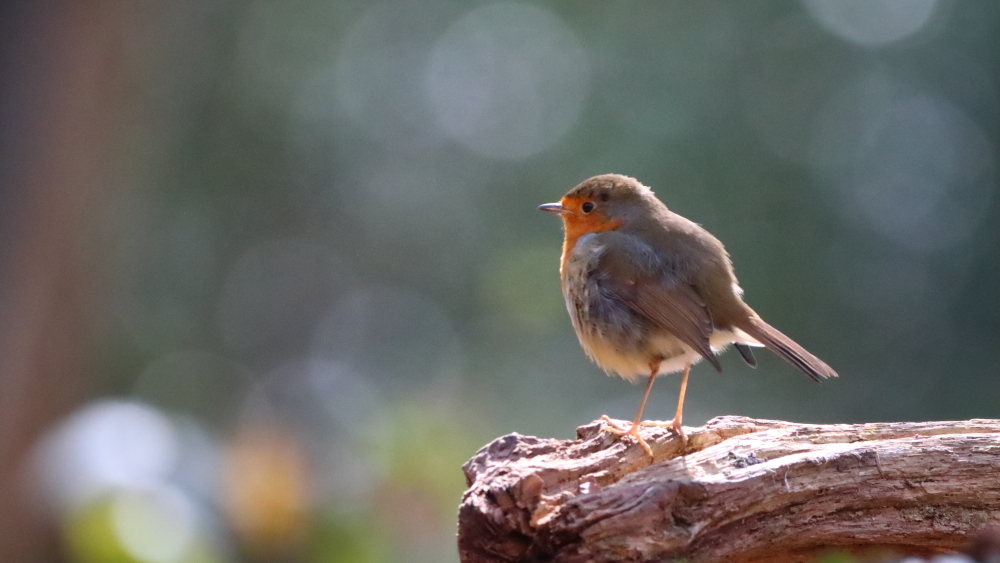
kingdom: Animalia
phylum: Chordata
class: Aves
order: Passeriformes
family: Muscicapidae
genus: Erithacus
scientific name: Erithacus rubecula
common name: European robin
